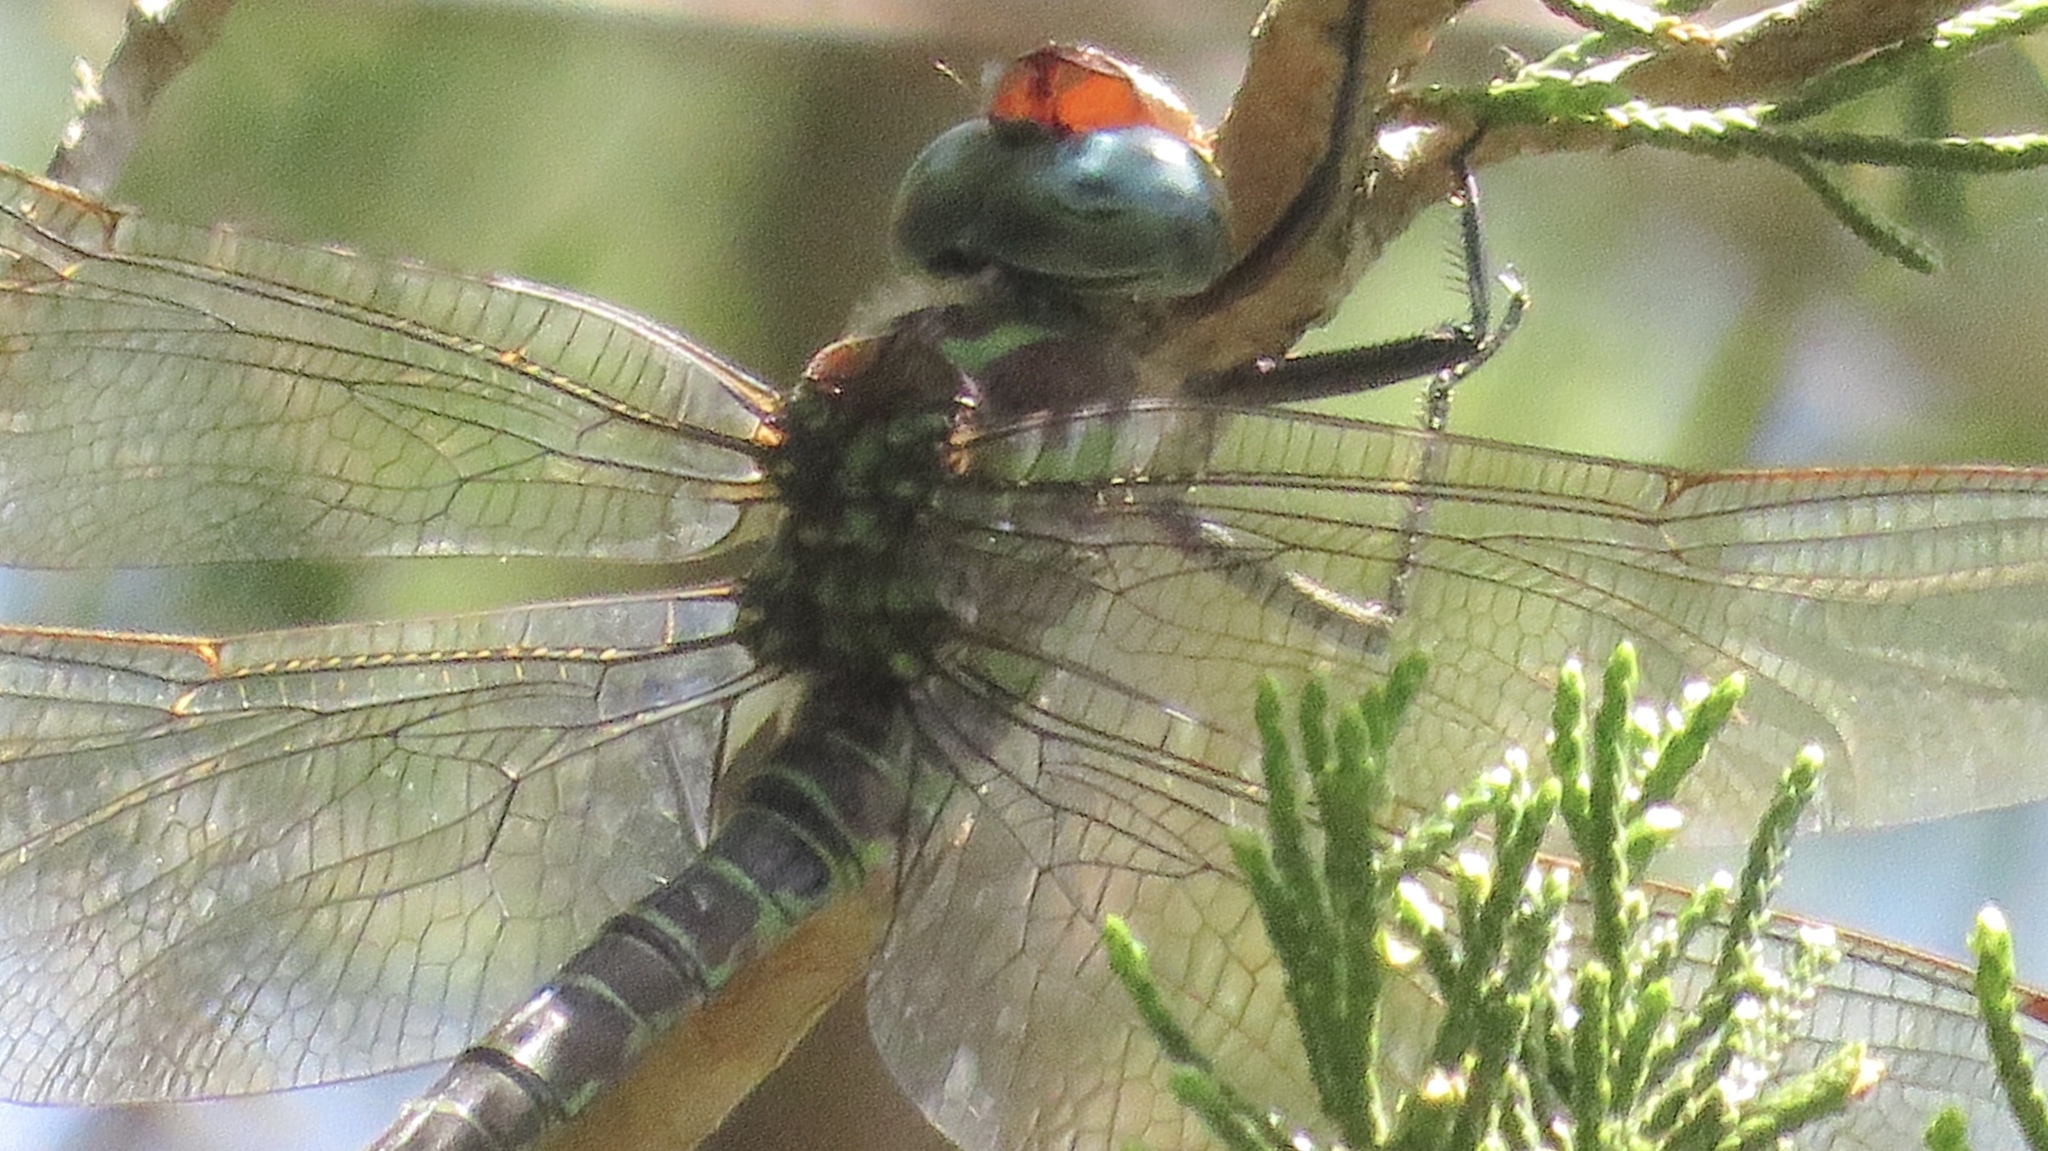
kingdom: Animalia
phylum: Arthropoda
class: Insecta
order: Odonata
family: Aeshnidae
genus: Epiaeschna
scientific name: Epiaeschna heros
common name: Swamp darner
